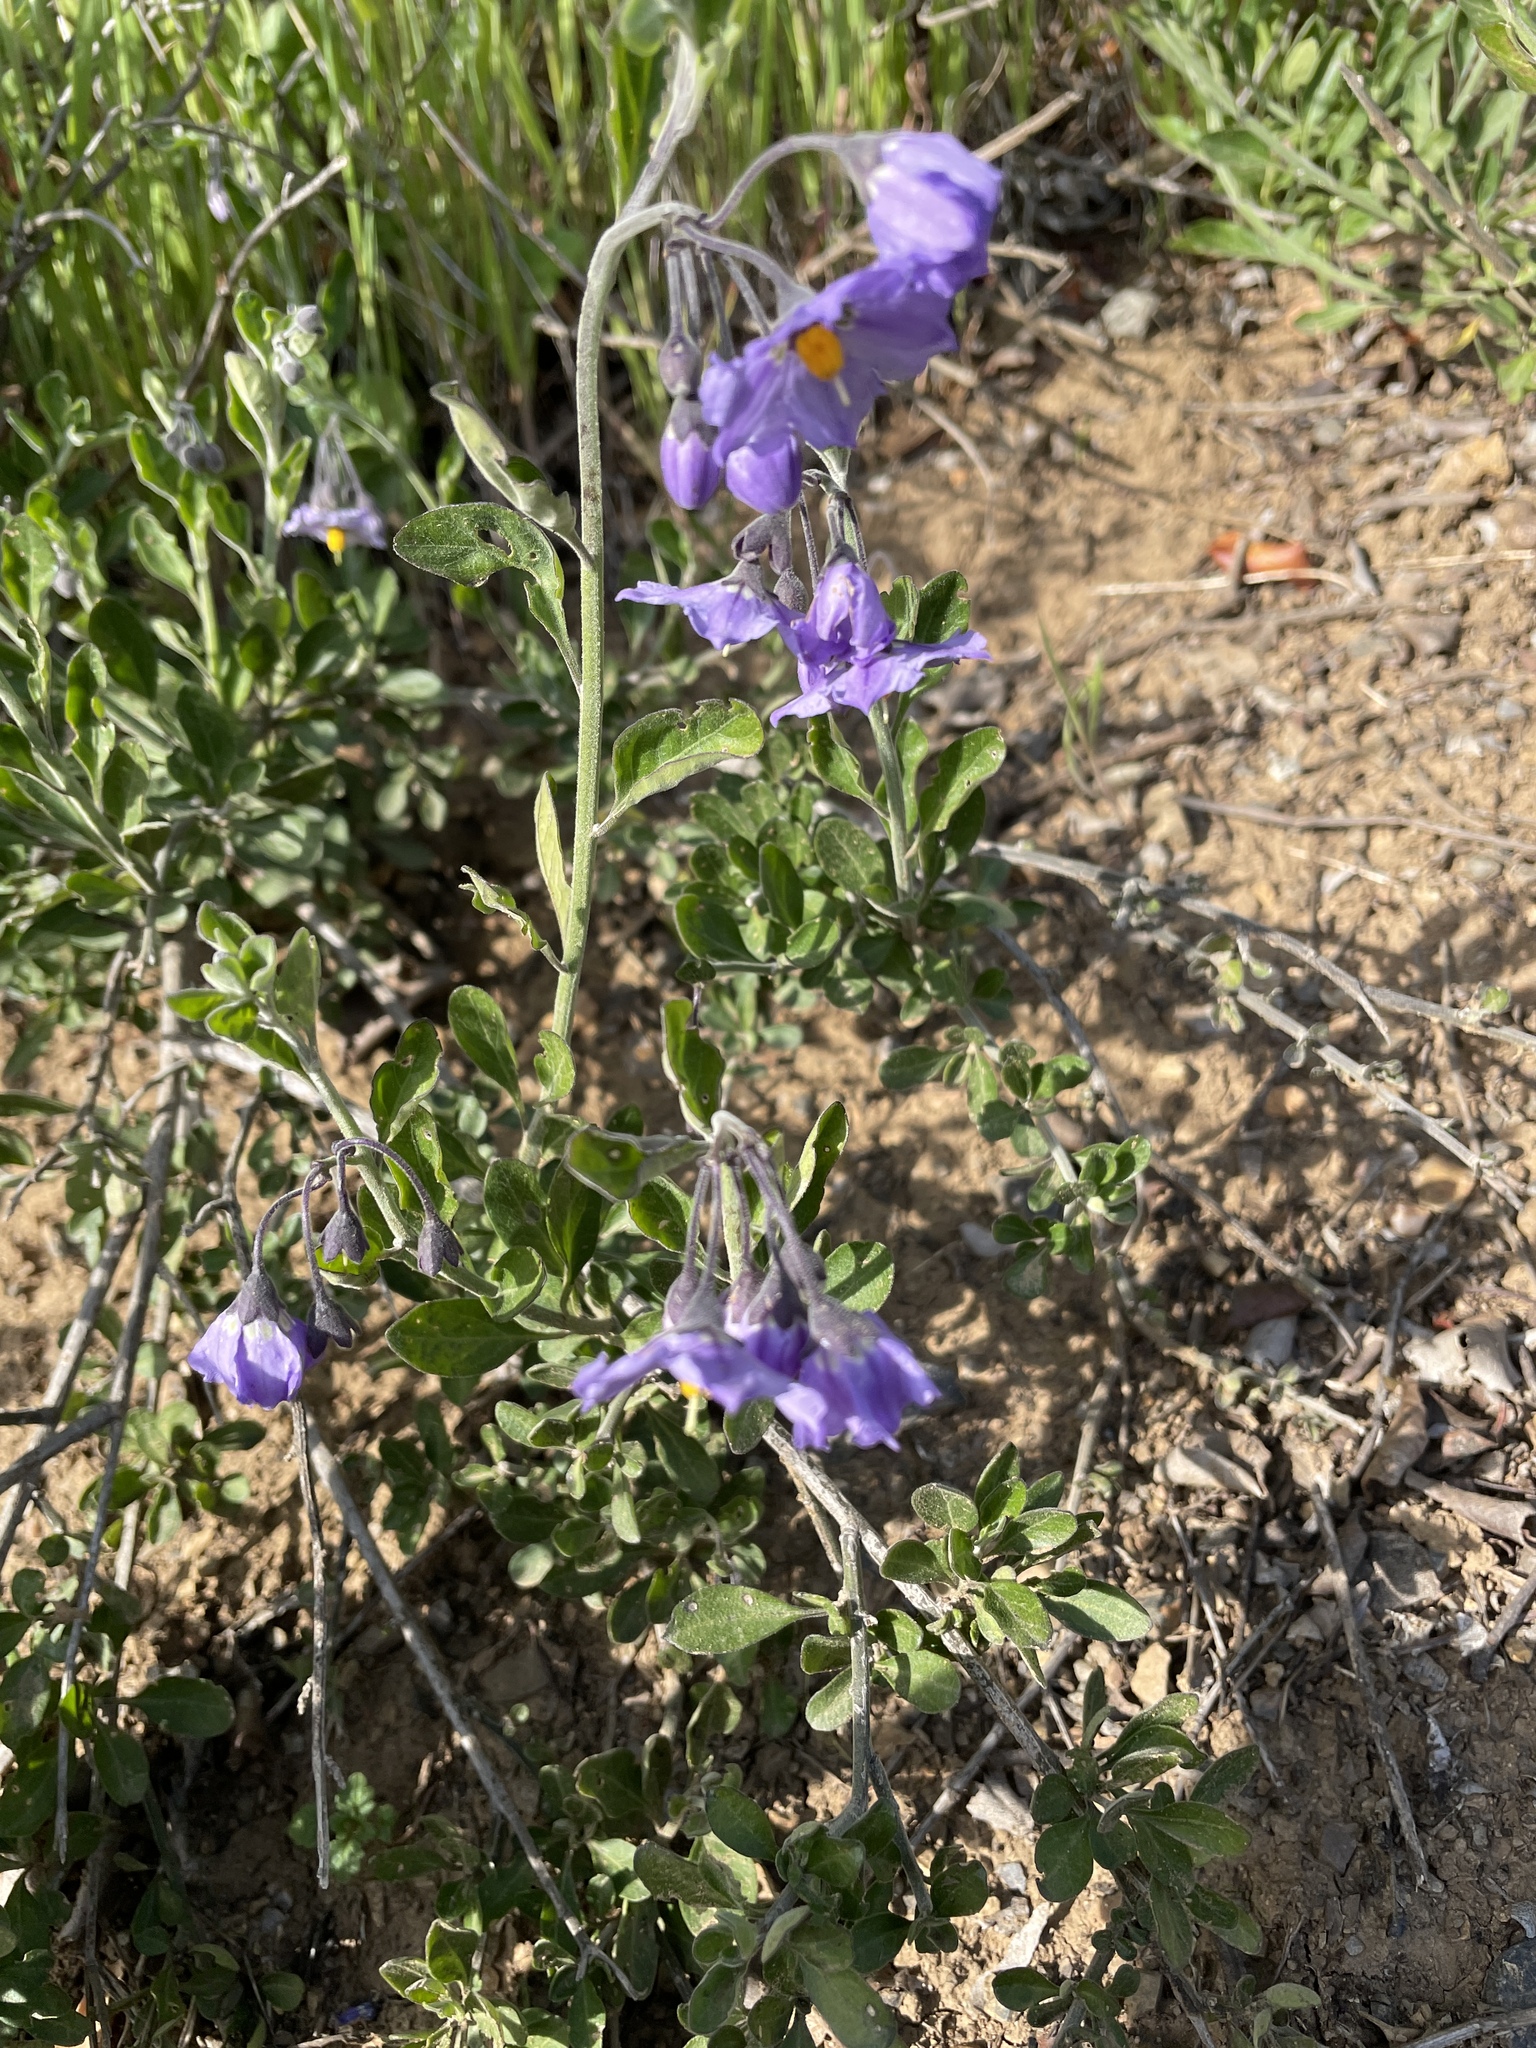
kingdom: Plantae
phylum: Tracheophyta
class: Magnoliopsida
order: Solanales
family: Solanaceae
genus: Solanum
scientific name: Solanum umbelliferum
